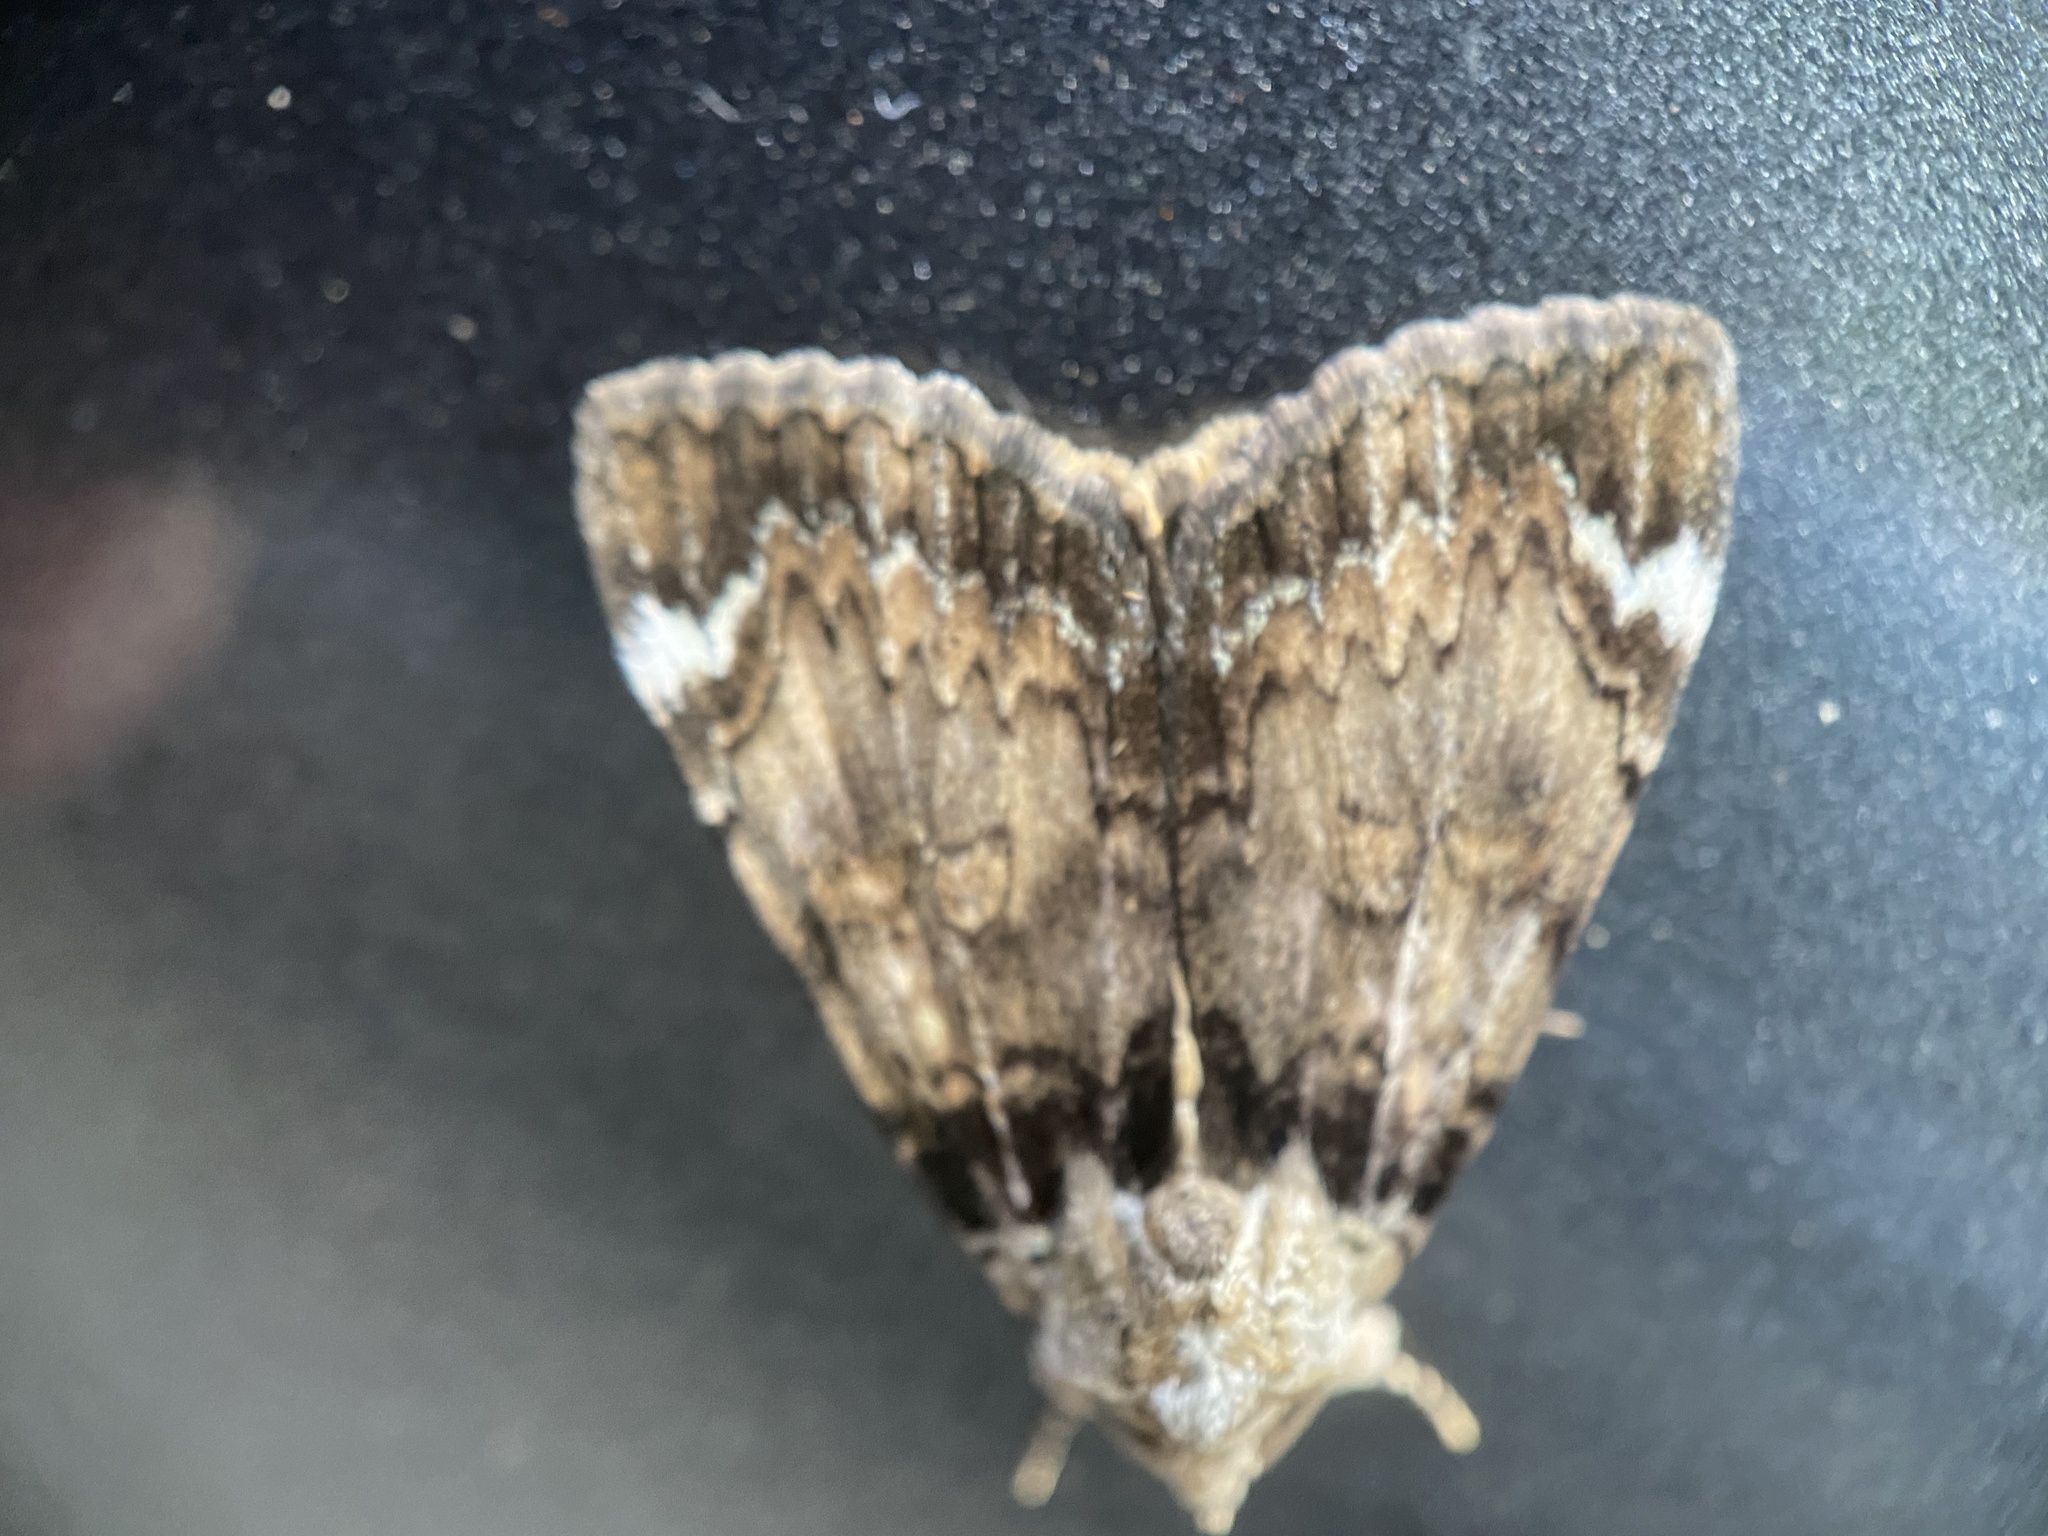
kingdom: Animalia
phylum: Arthropoda
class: Insecta
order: Lepidoptera
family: Erebidae
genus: Catocala
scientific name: Catocala minuta
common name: Little underwing
